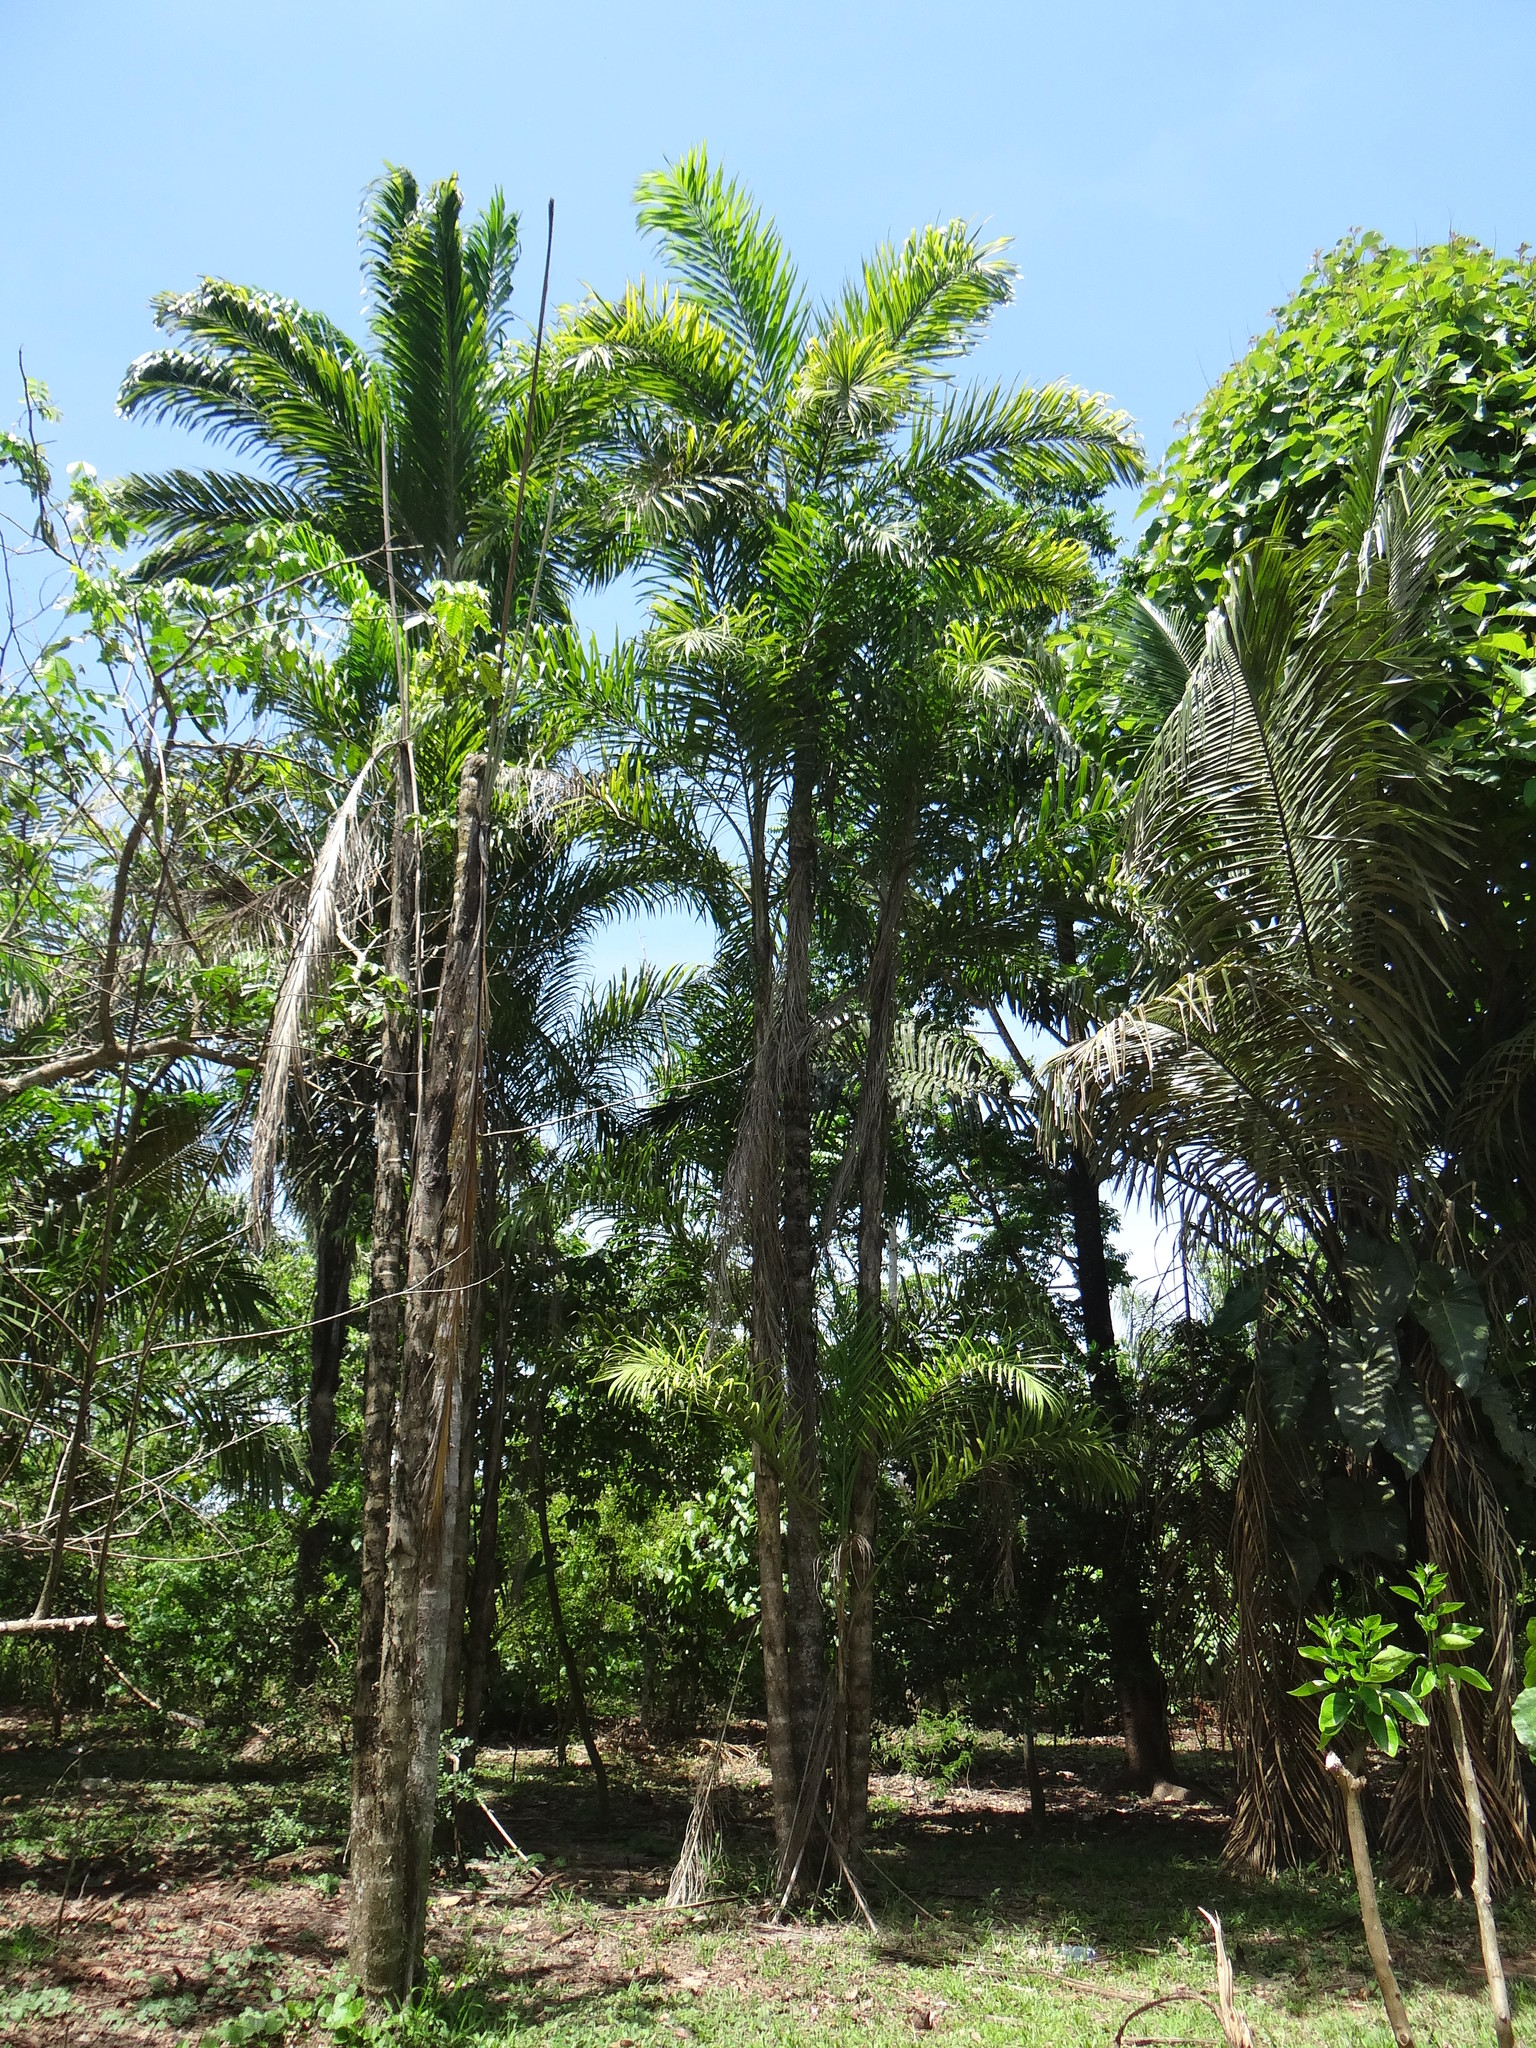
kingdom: Plantae
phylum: Tracheophyta
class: Liliopsida
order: Arecales
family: Arecaceae
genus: Bactris
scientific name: Bactris gasipaes
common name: Peach palm
